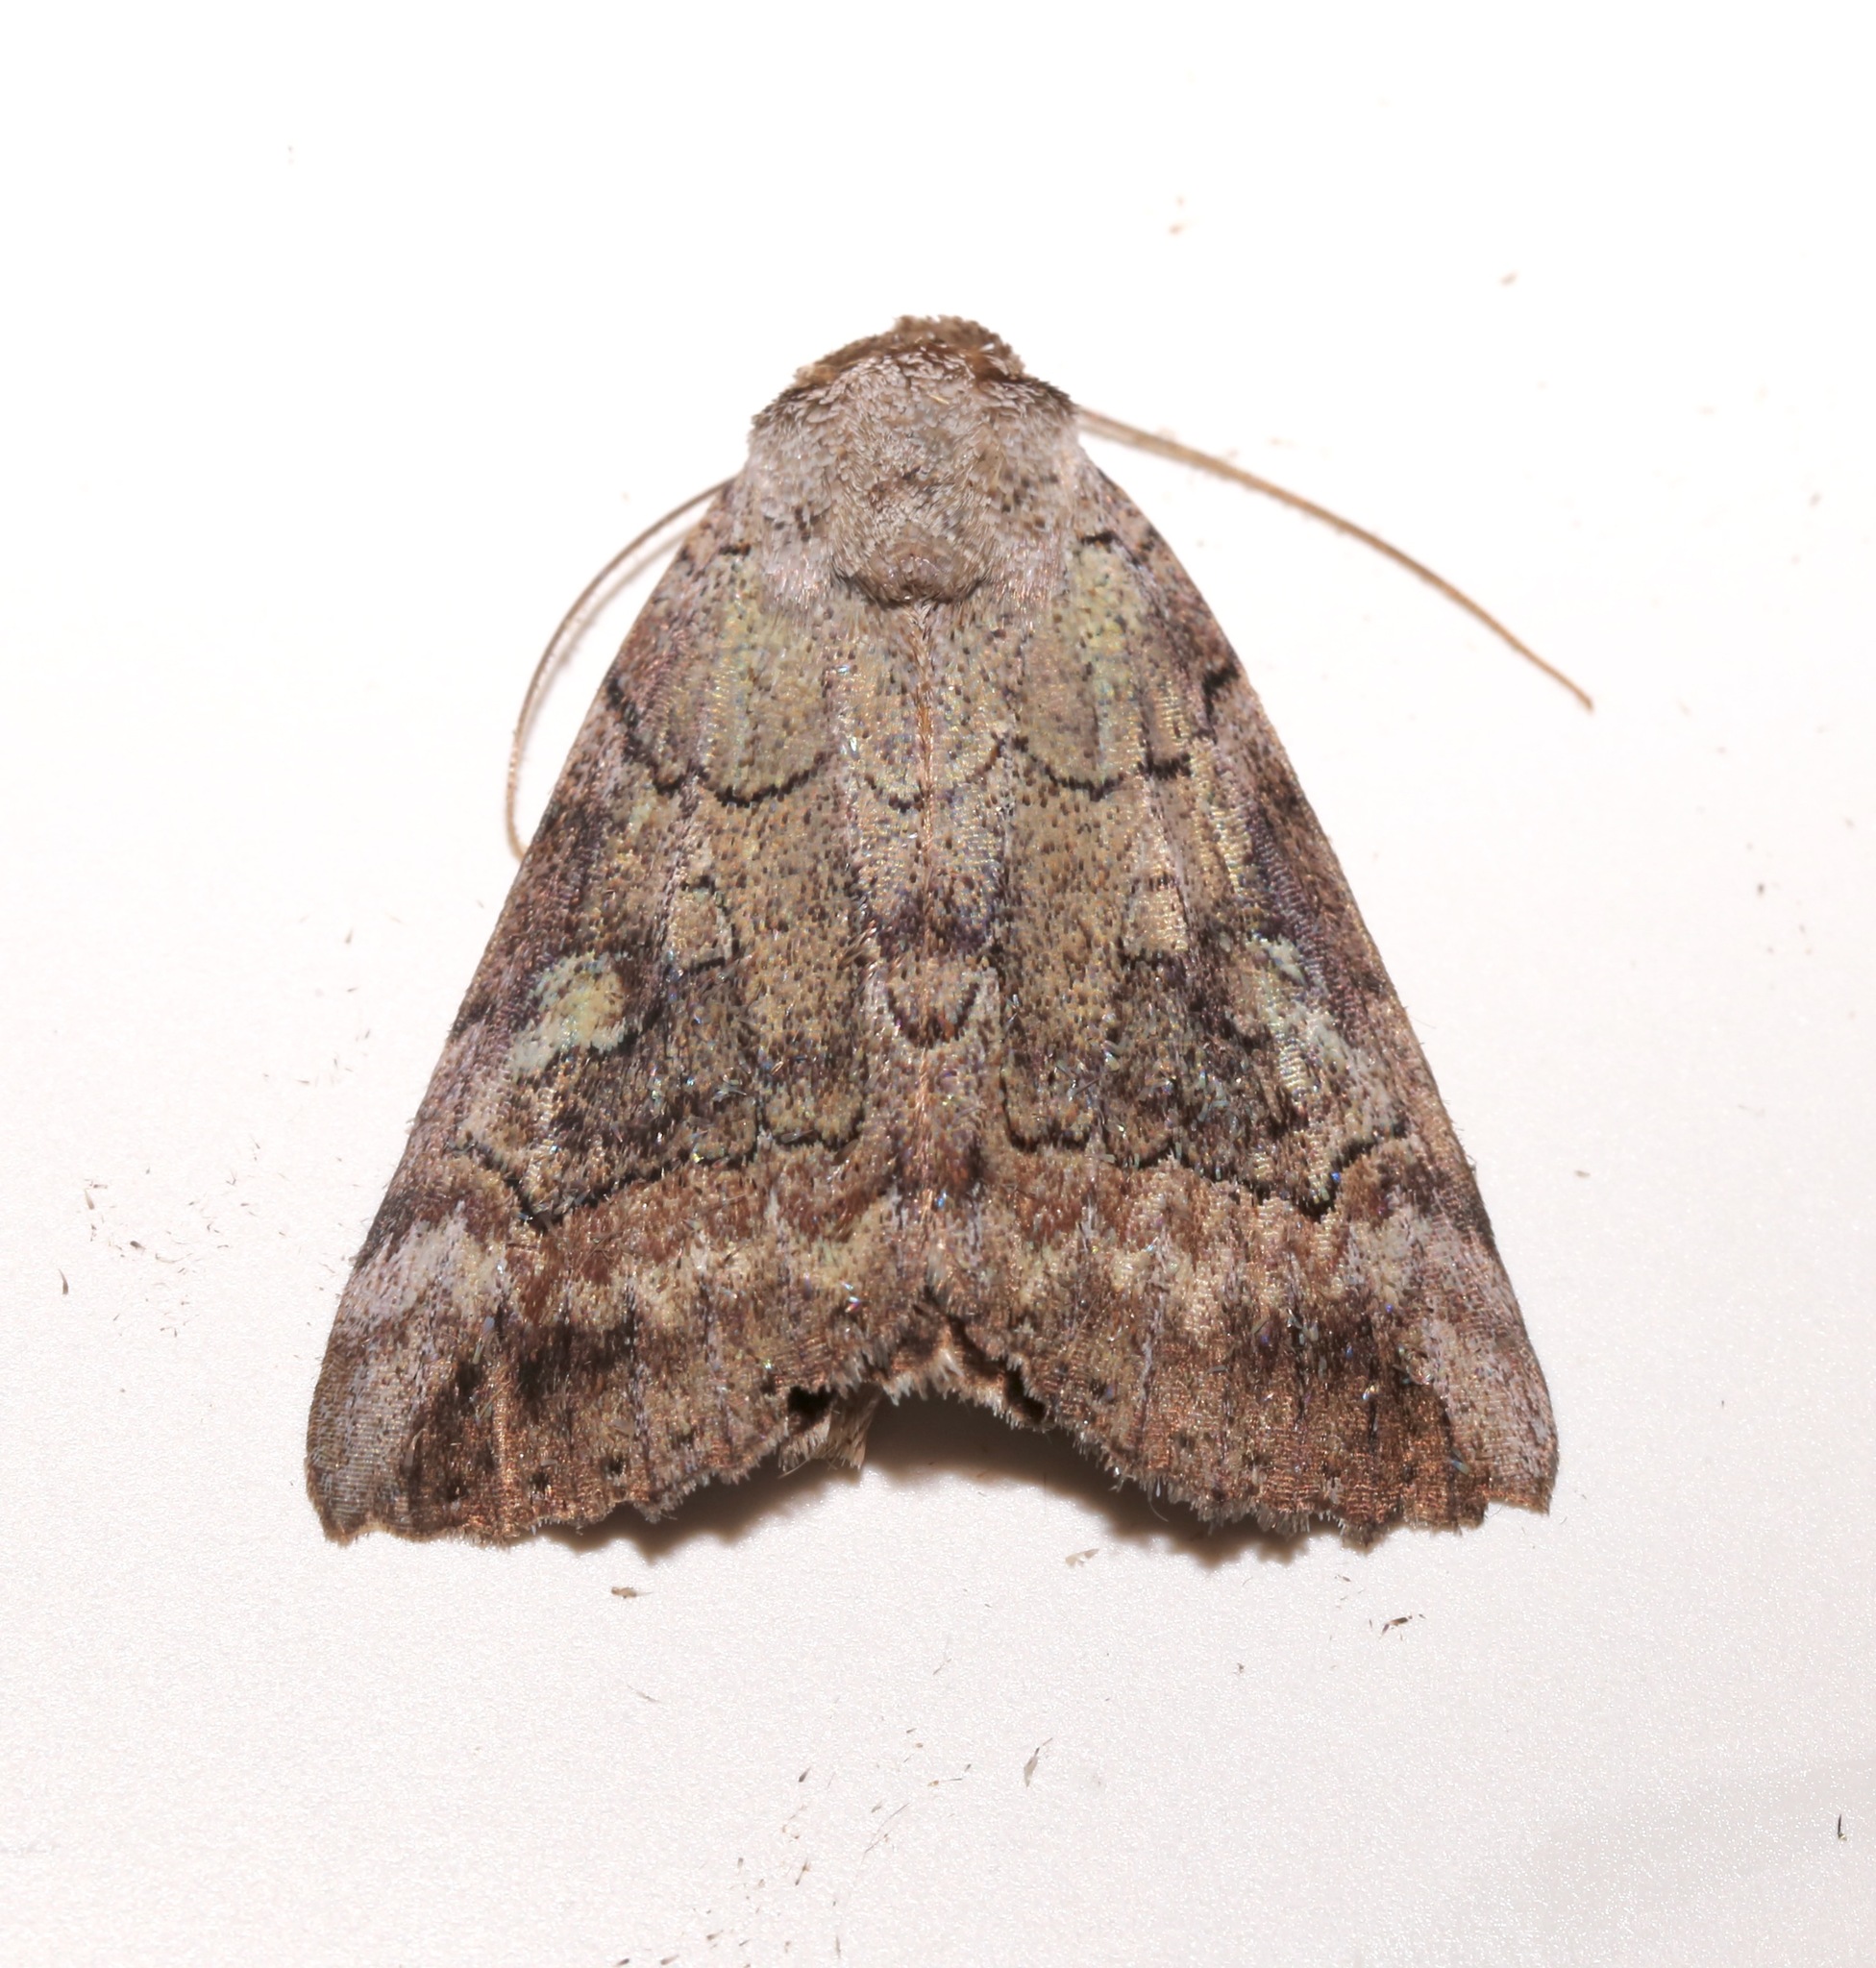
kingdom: Animalia
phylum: Arthropoda
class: Insecta
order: Lepidoptera
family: Erebidae
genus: Catocala
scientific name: Catocala similis
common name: Similar underwing
